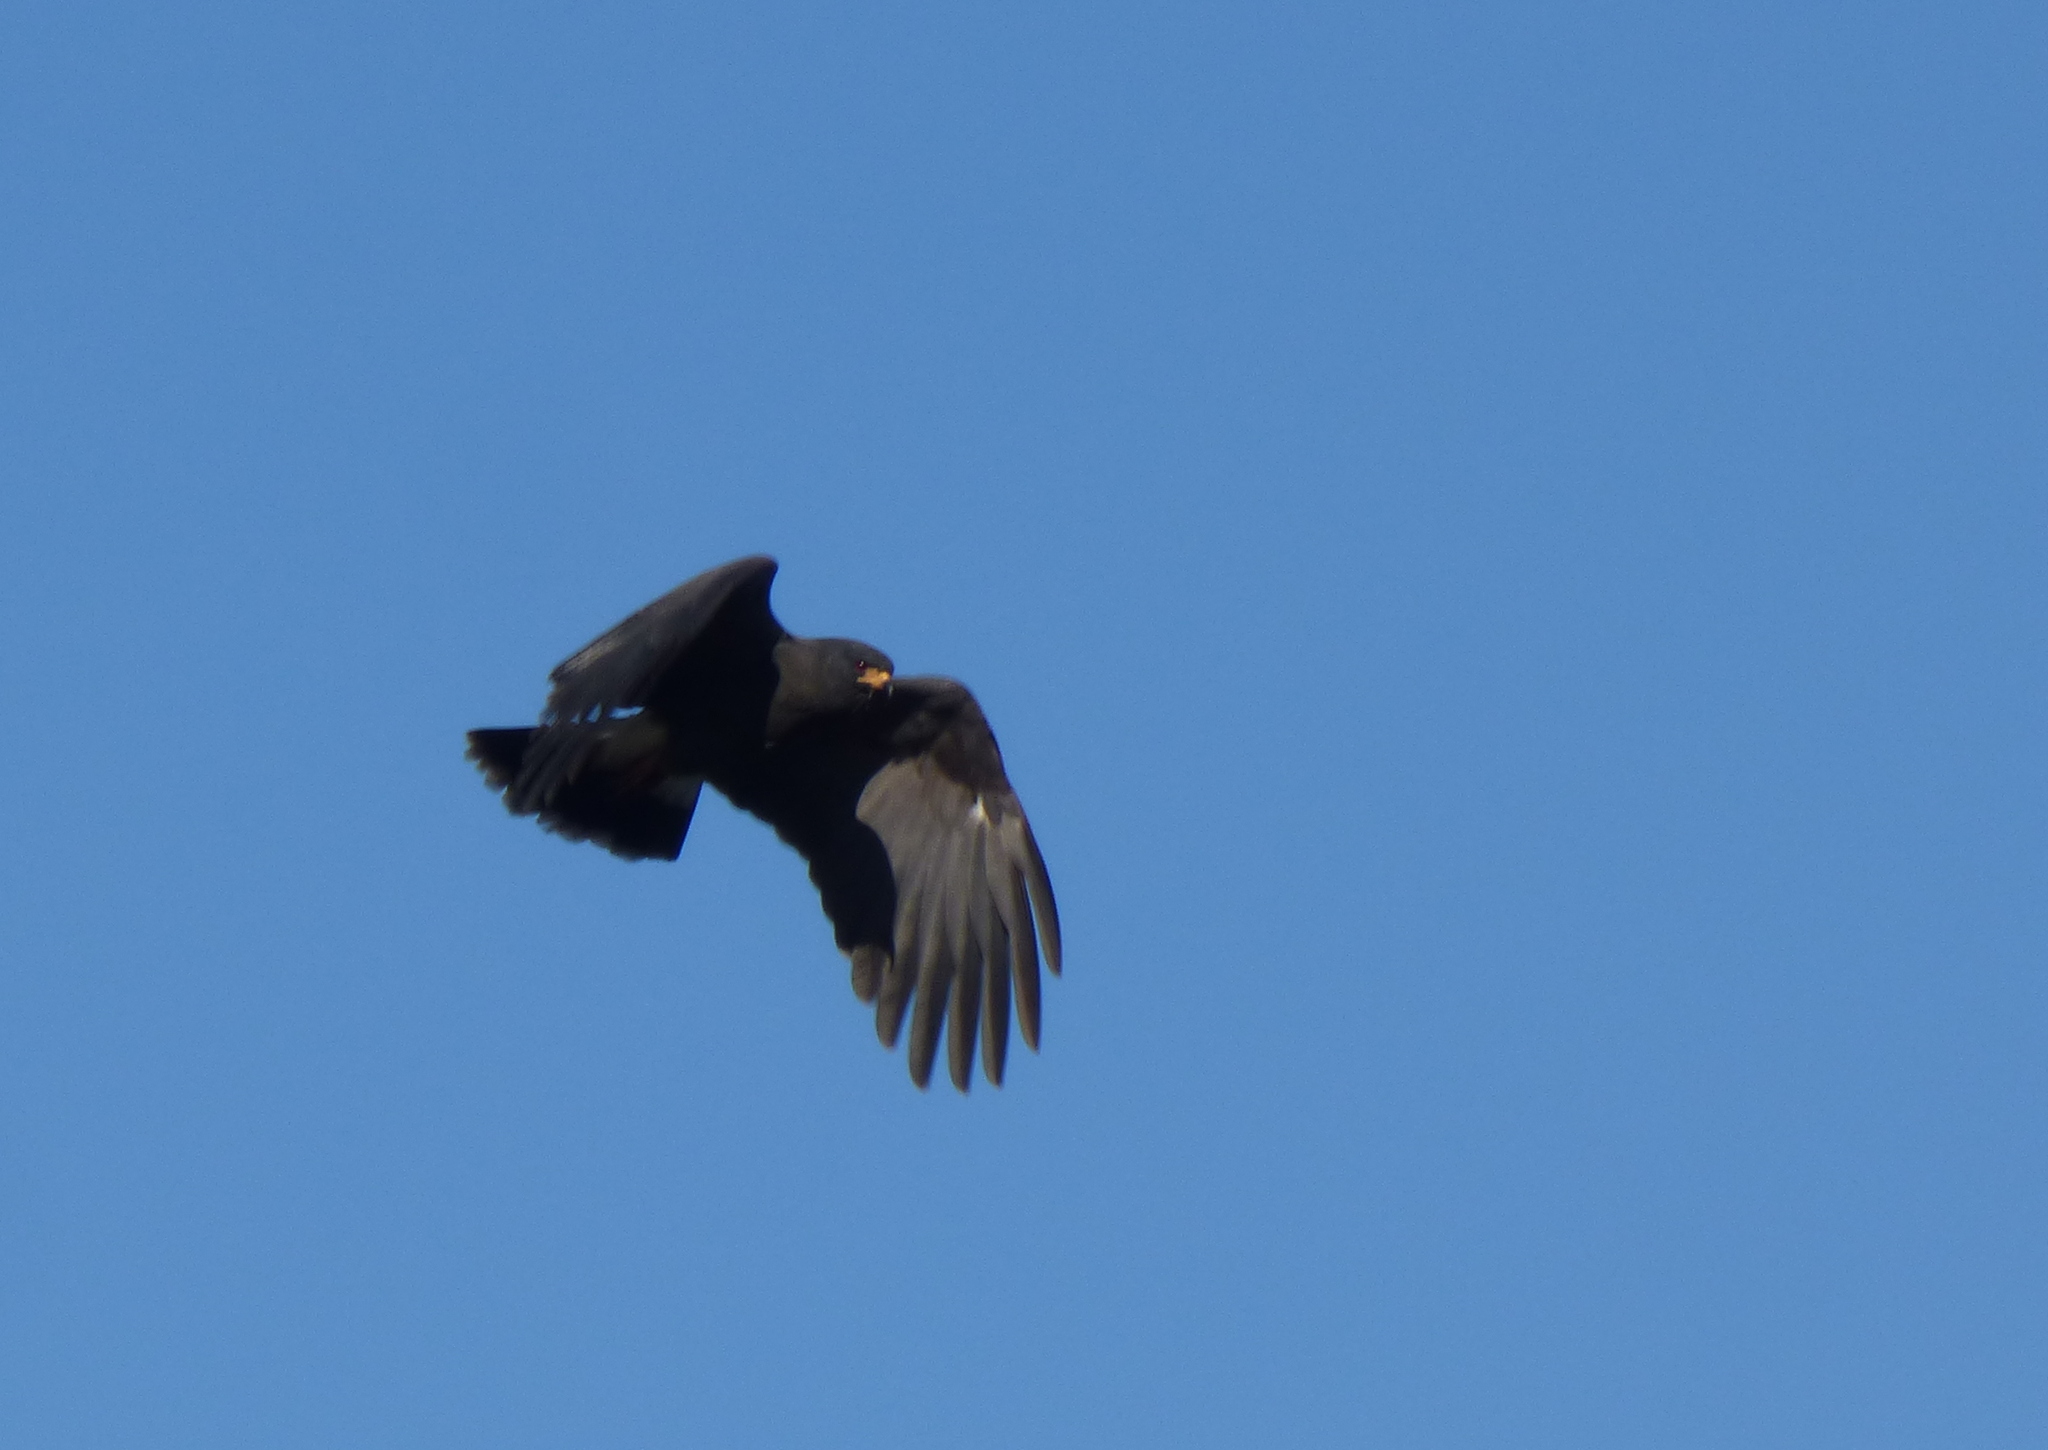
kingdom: Animalia
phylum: Chordata
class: Aves
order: Accipitriformes
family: Accipitridae
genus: Rostrhamus
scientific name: Rostrhamus sociabilis
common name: Snail kite
